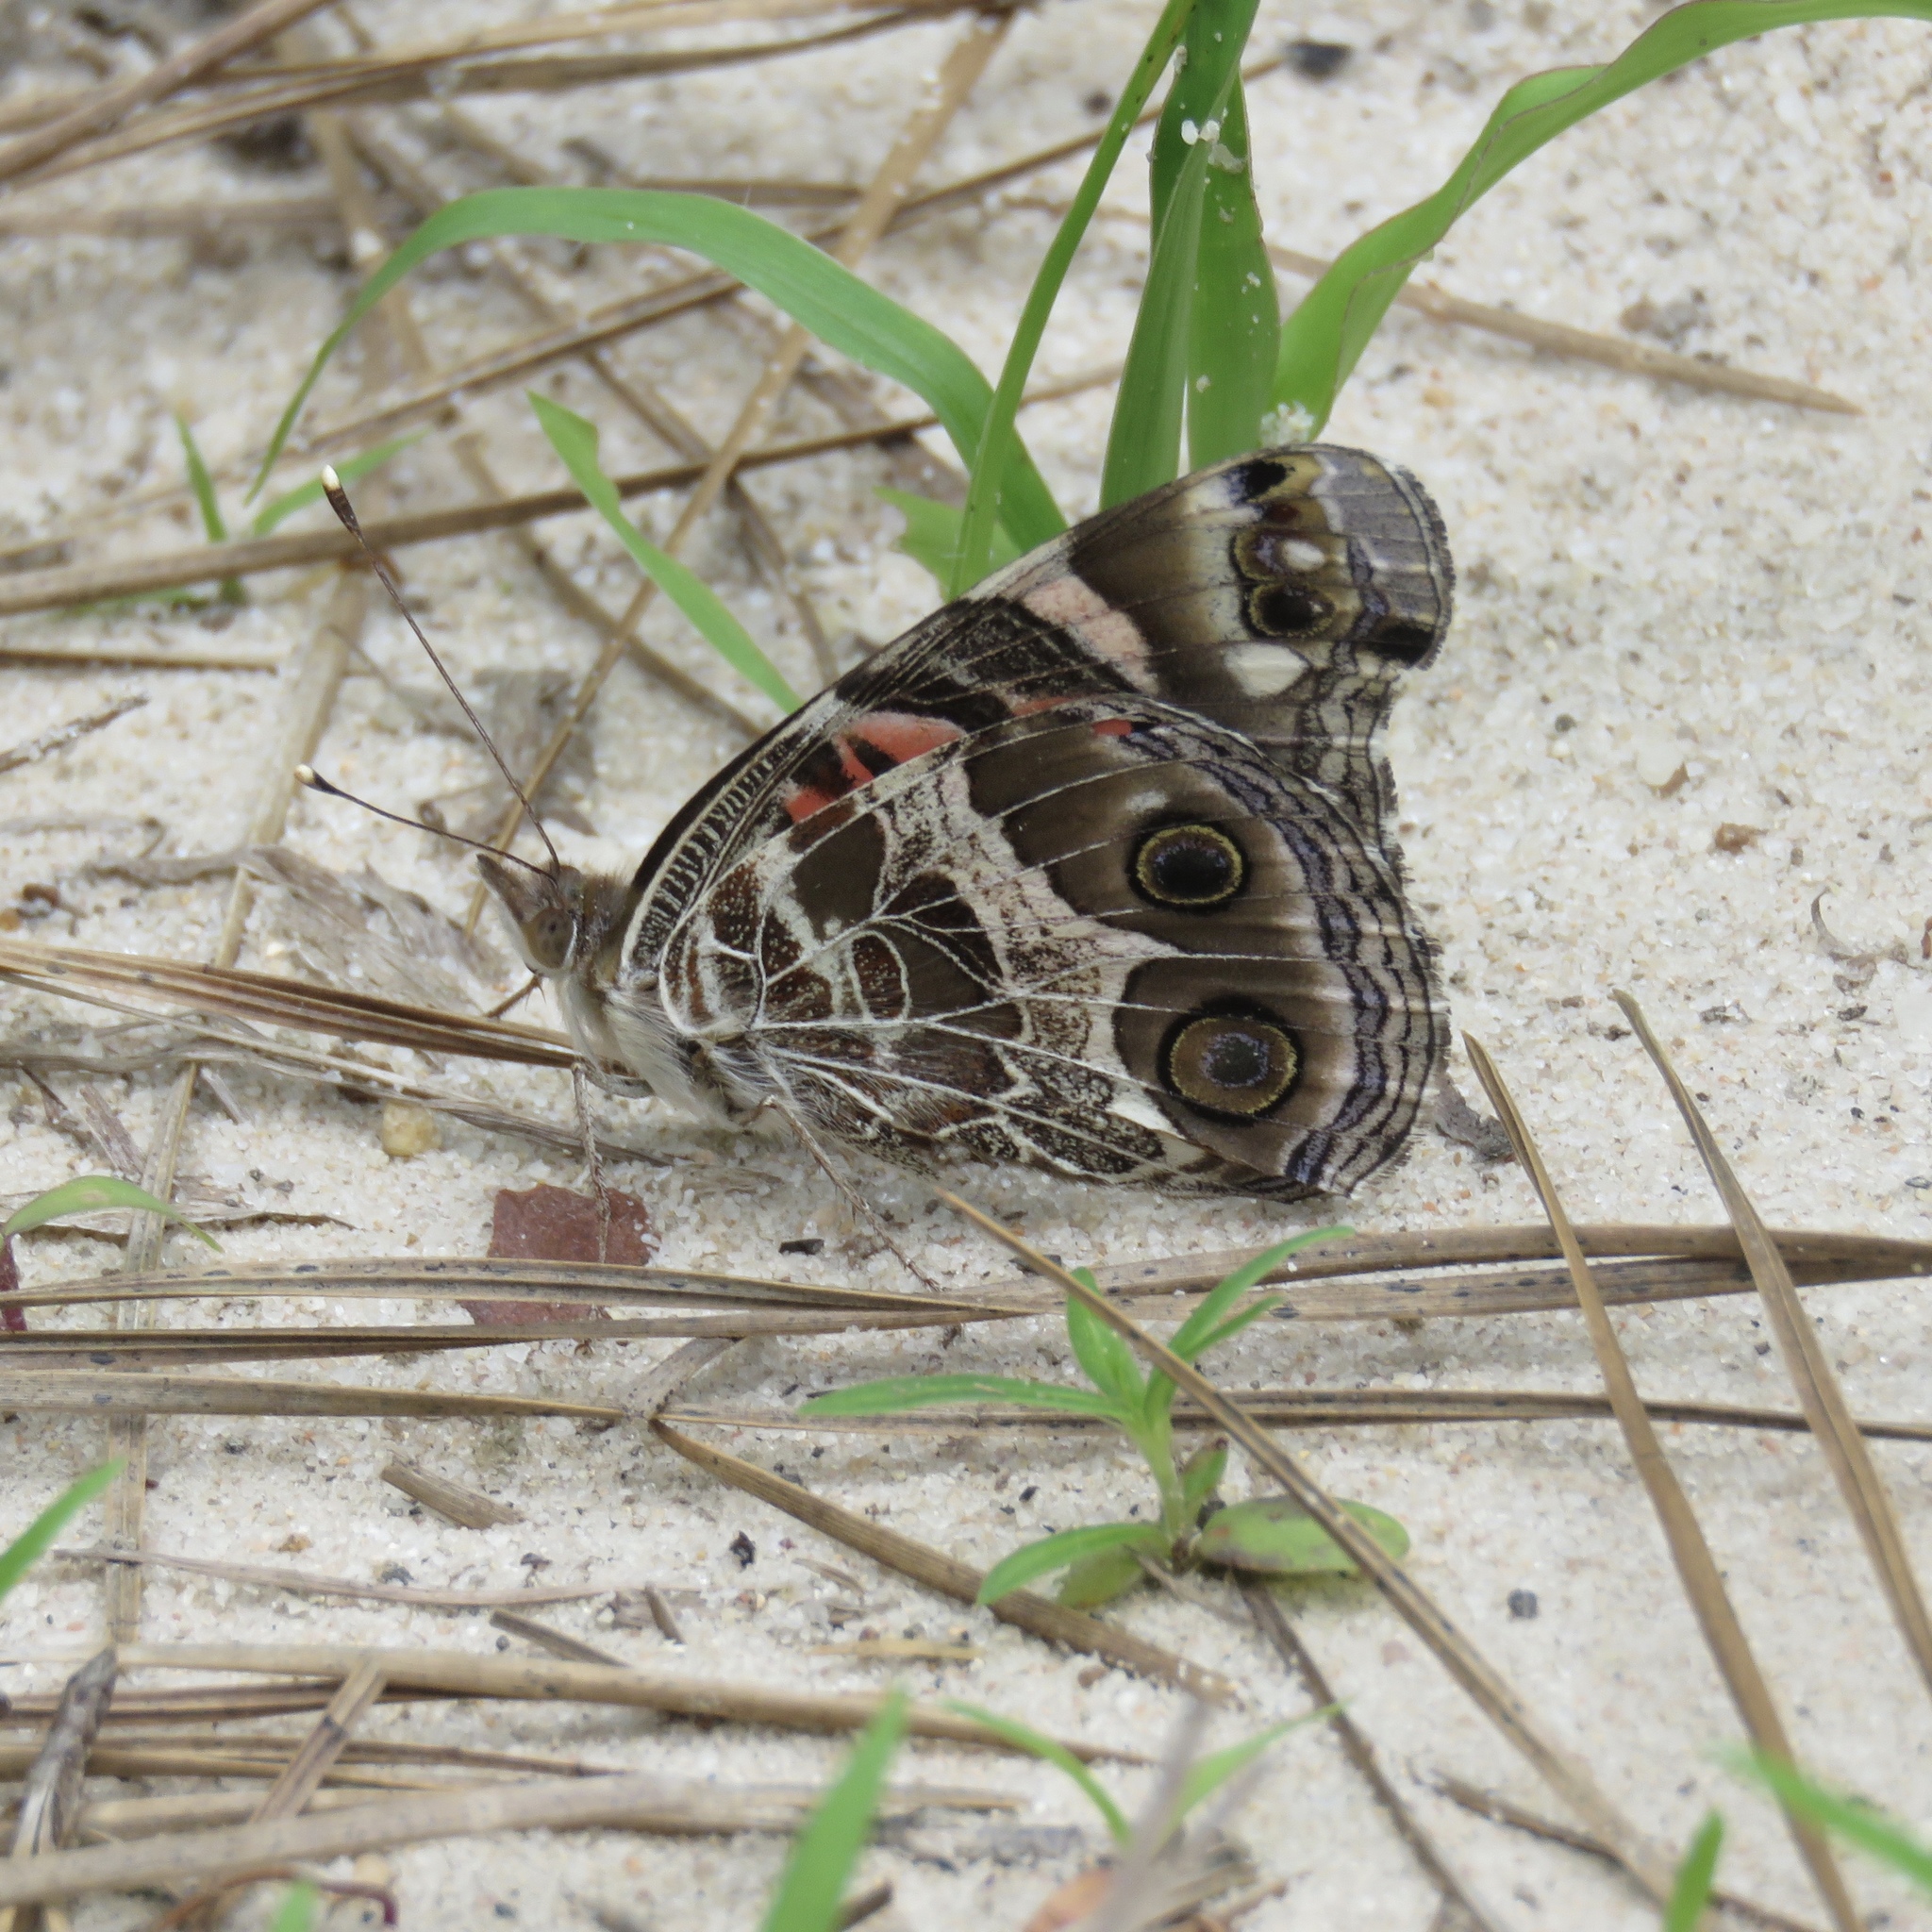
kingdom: Animalia
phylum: Arthropoda
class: Insecta
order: Lepidoptera
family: Nymphalidae
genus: Vanessa
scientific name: Vanessa virginiensis
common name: American lady
